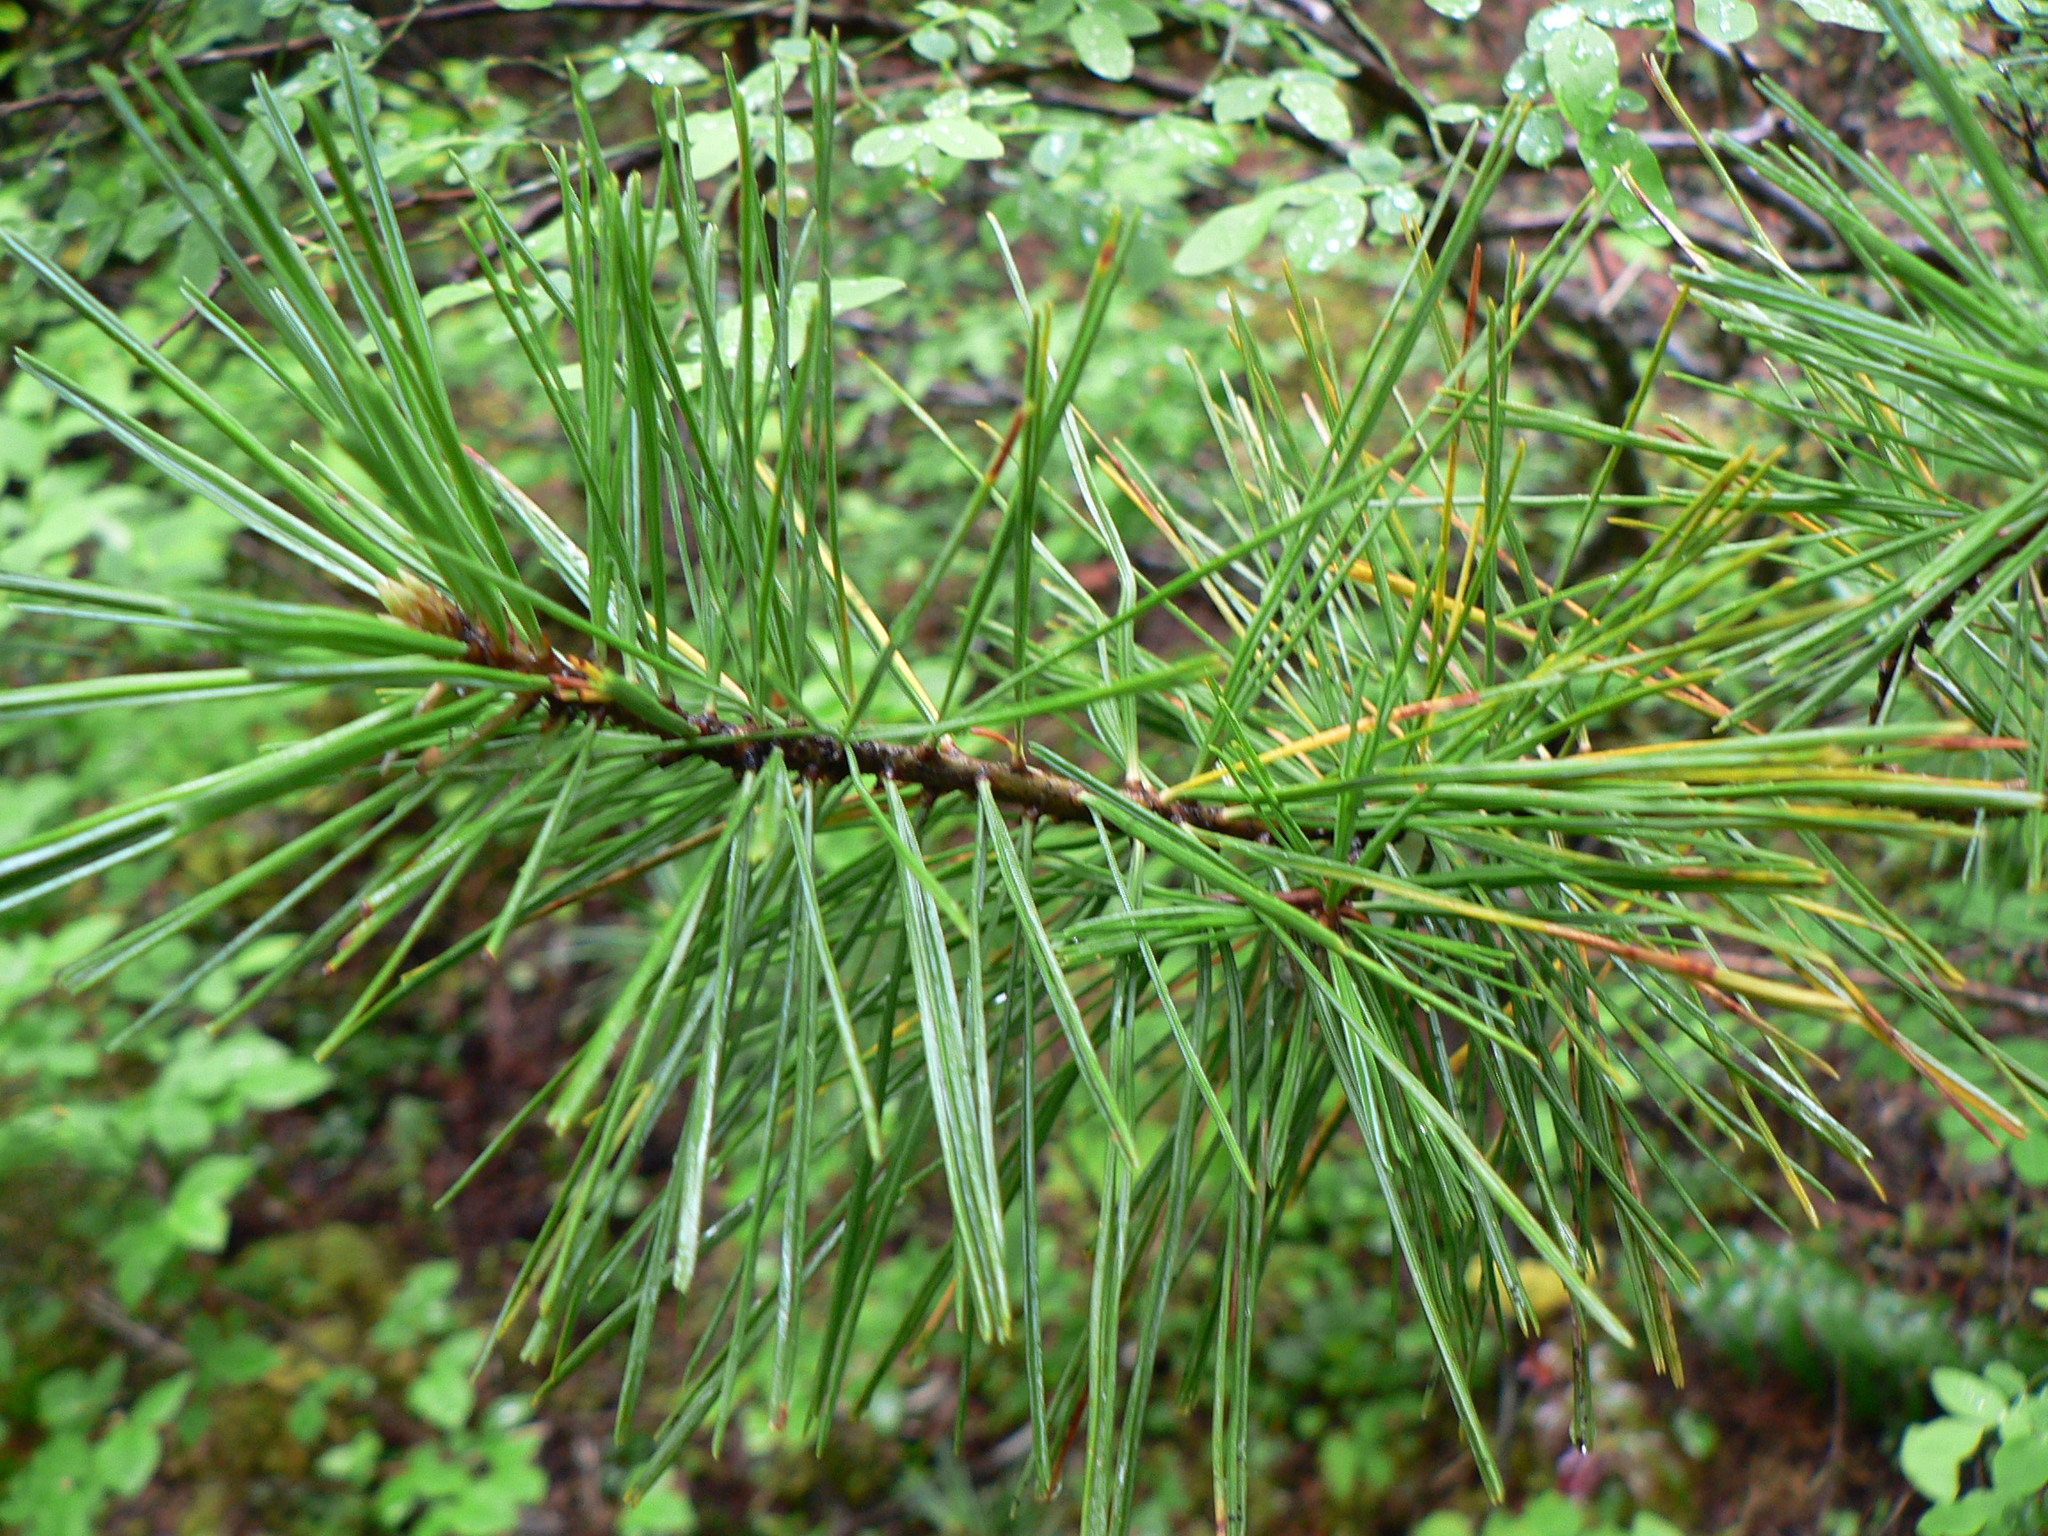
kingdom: Fungi
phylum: Basidiomycota
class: Pucciniomycetes
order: Pucciniales
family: Cronartiaceae
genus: Cronartium
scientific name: Cronartium ribicola
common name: White pine blister rust
